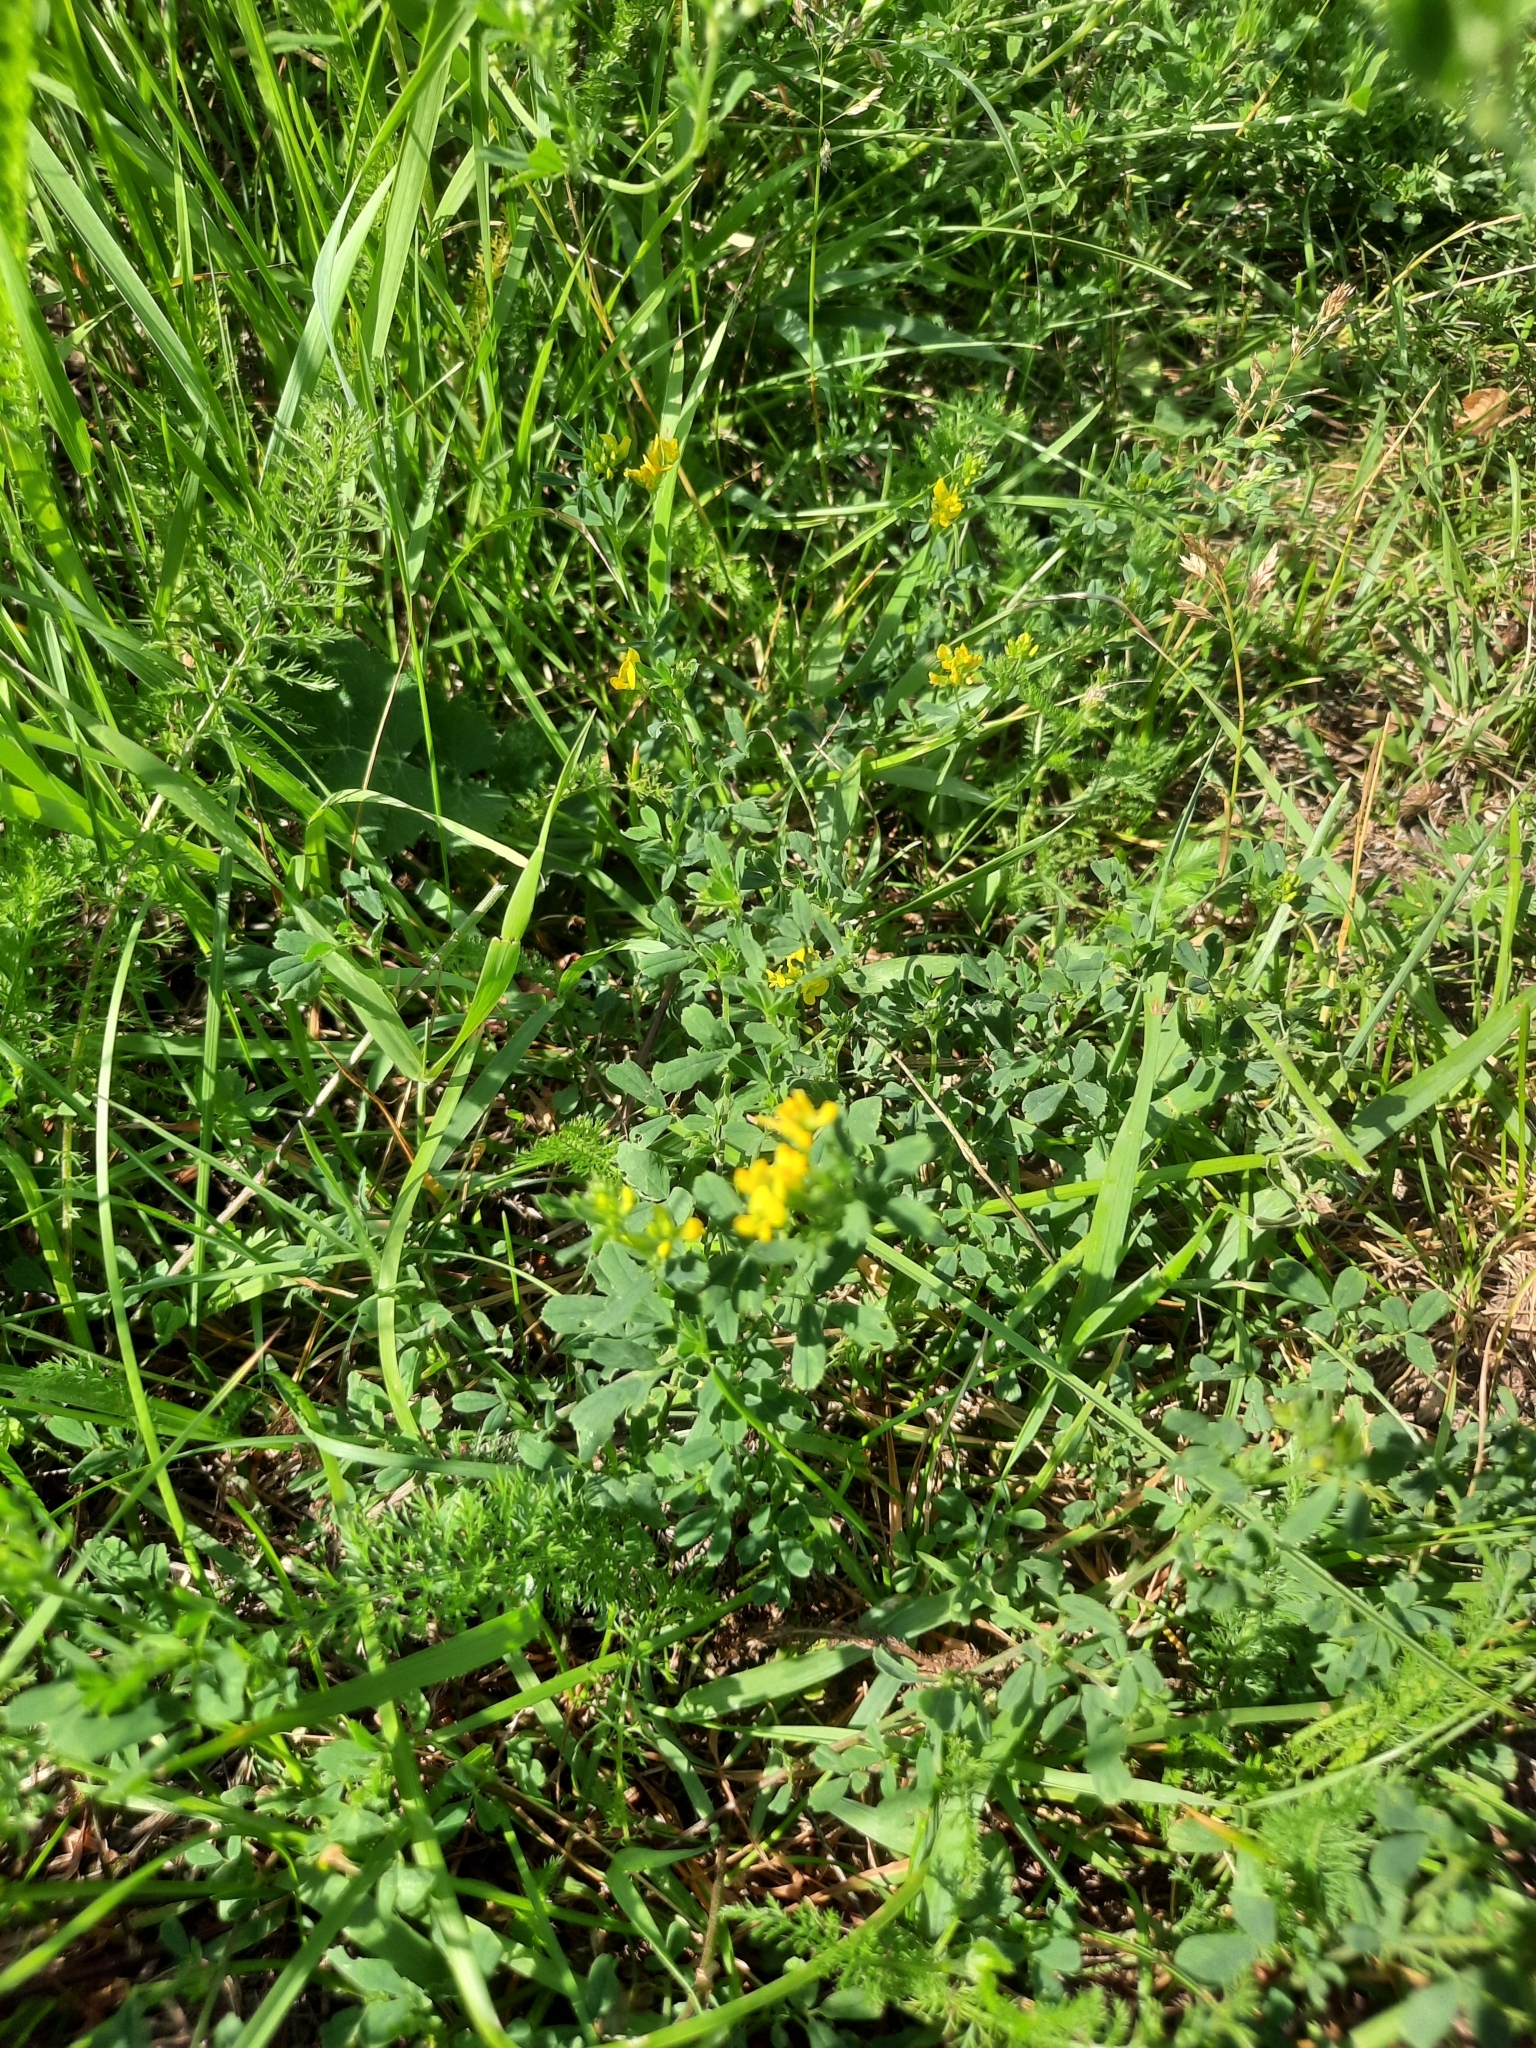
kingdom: Plantae
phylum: Tracheophyta
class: Magnoliopsida
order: Fabales
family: Fabaceae
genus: Medicago
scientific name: Medicago falcata
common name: Sickle medick
